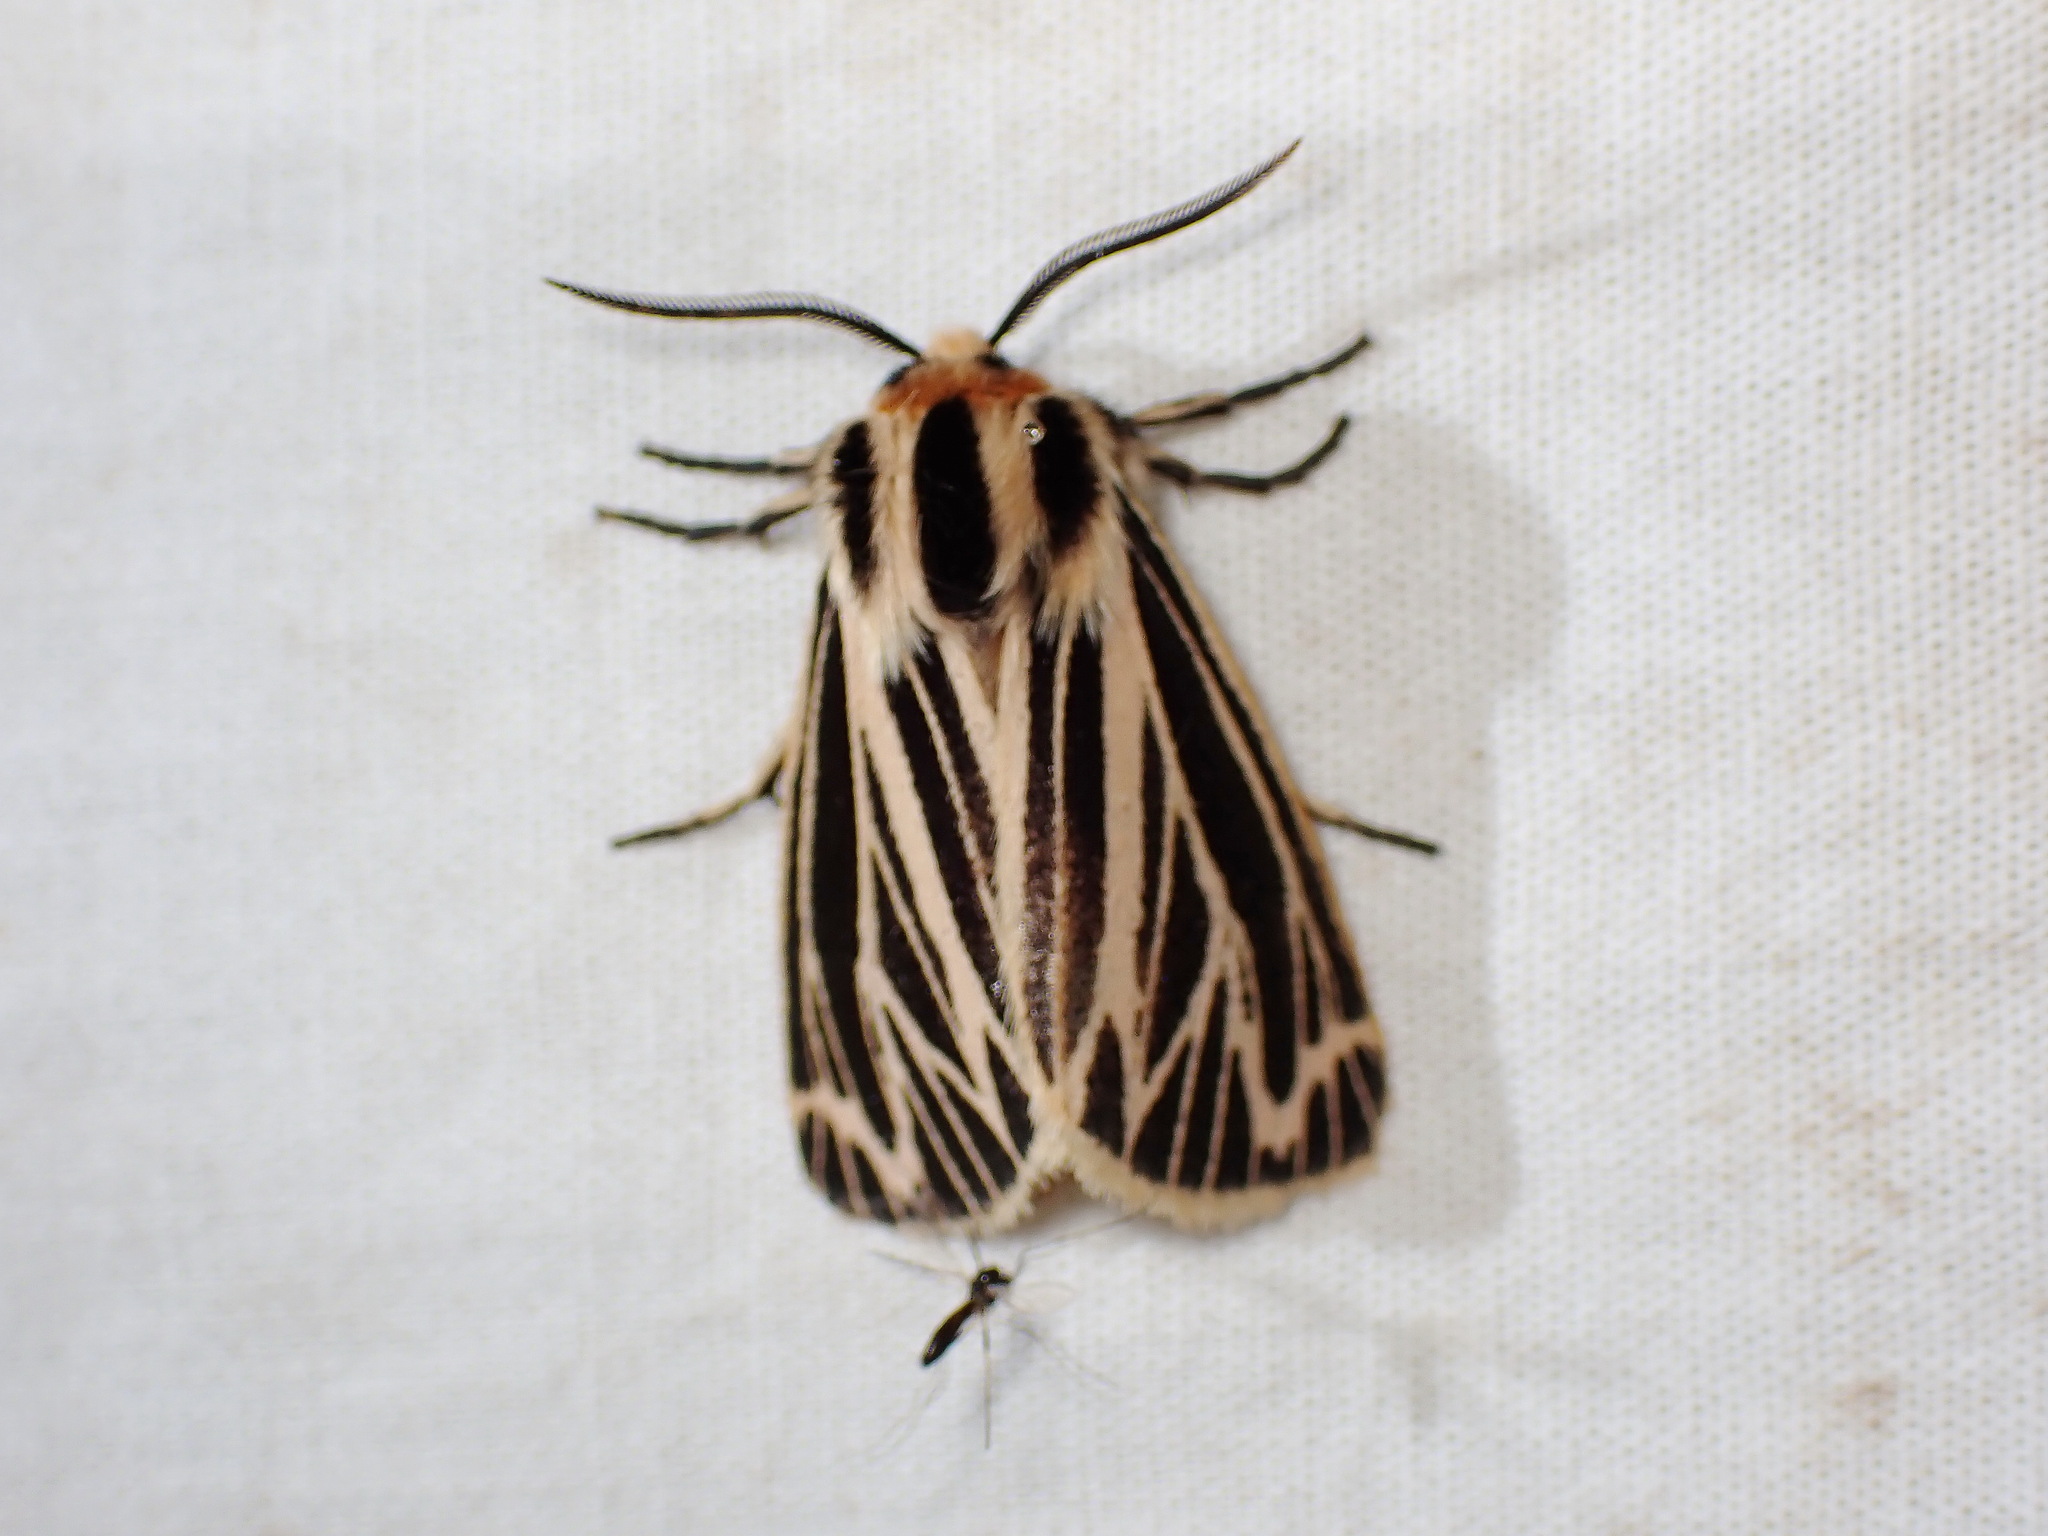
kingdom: Animalia
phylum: Arthropoda
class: Insecta
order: Lepidoptera
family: Erebidae
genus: Grammia
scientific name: Grammia virguncula
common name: Little tiger moth
